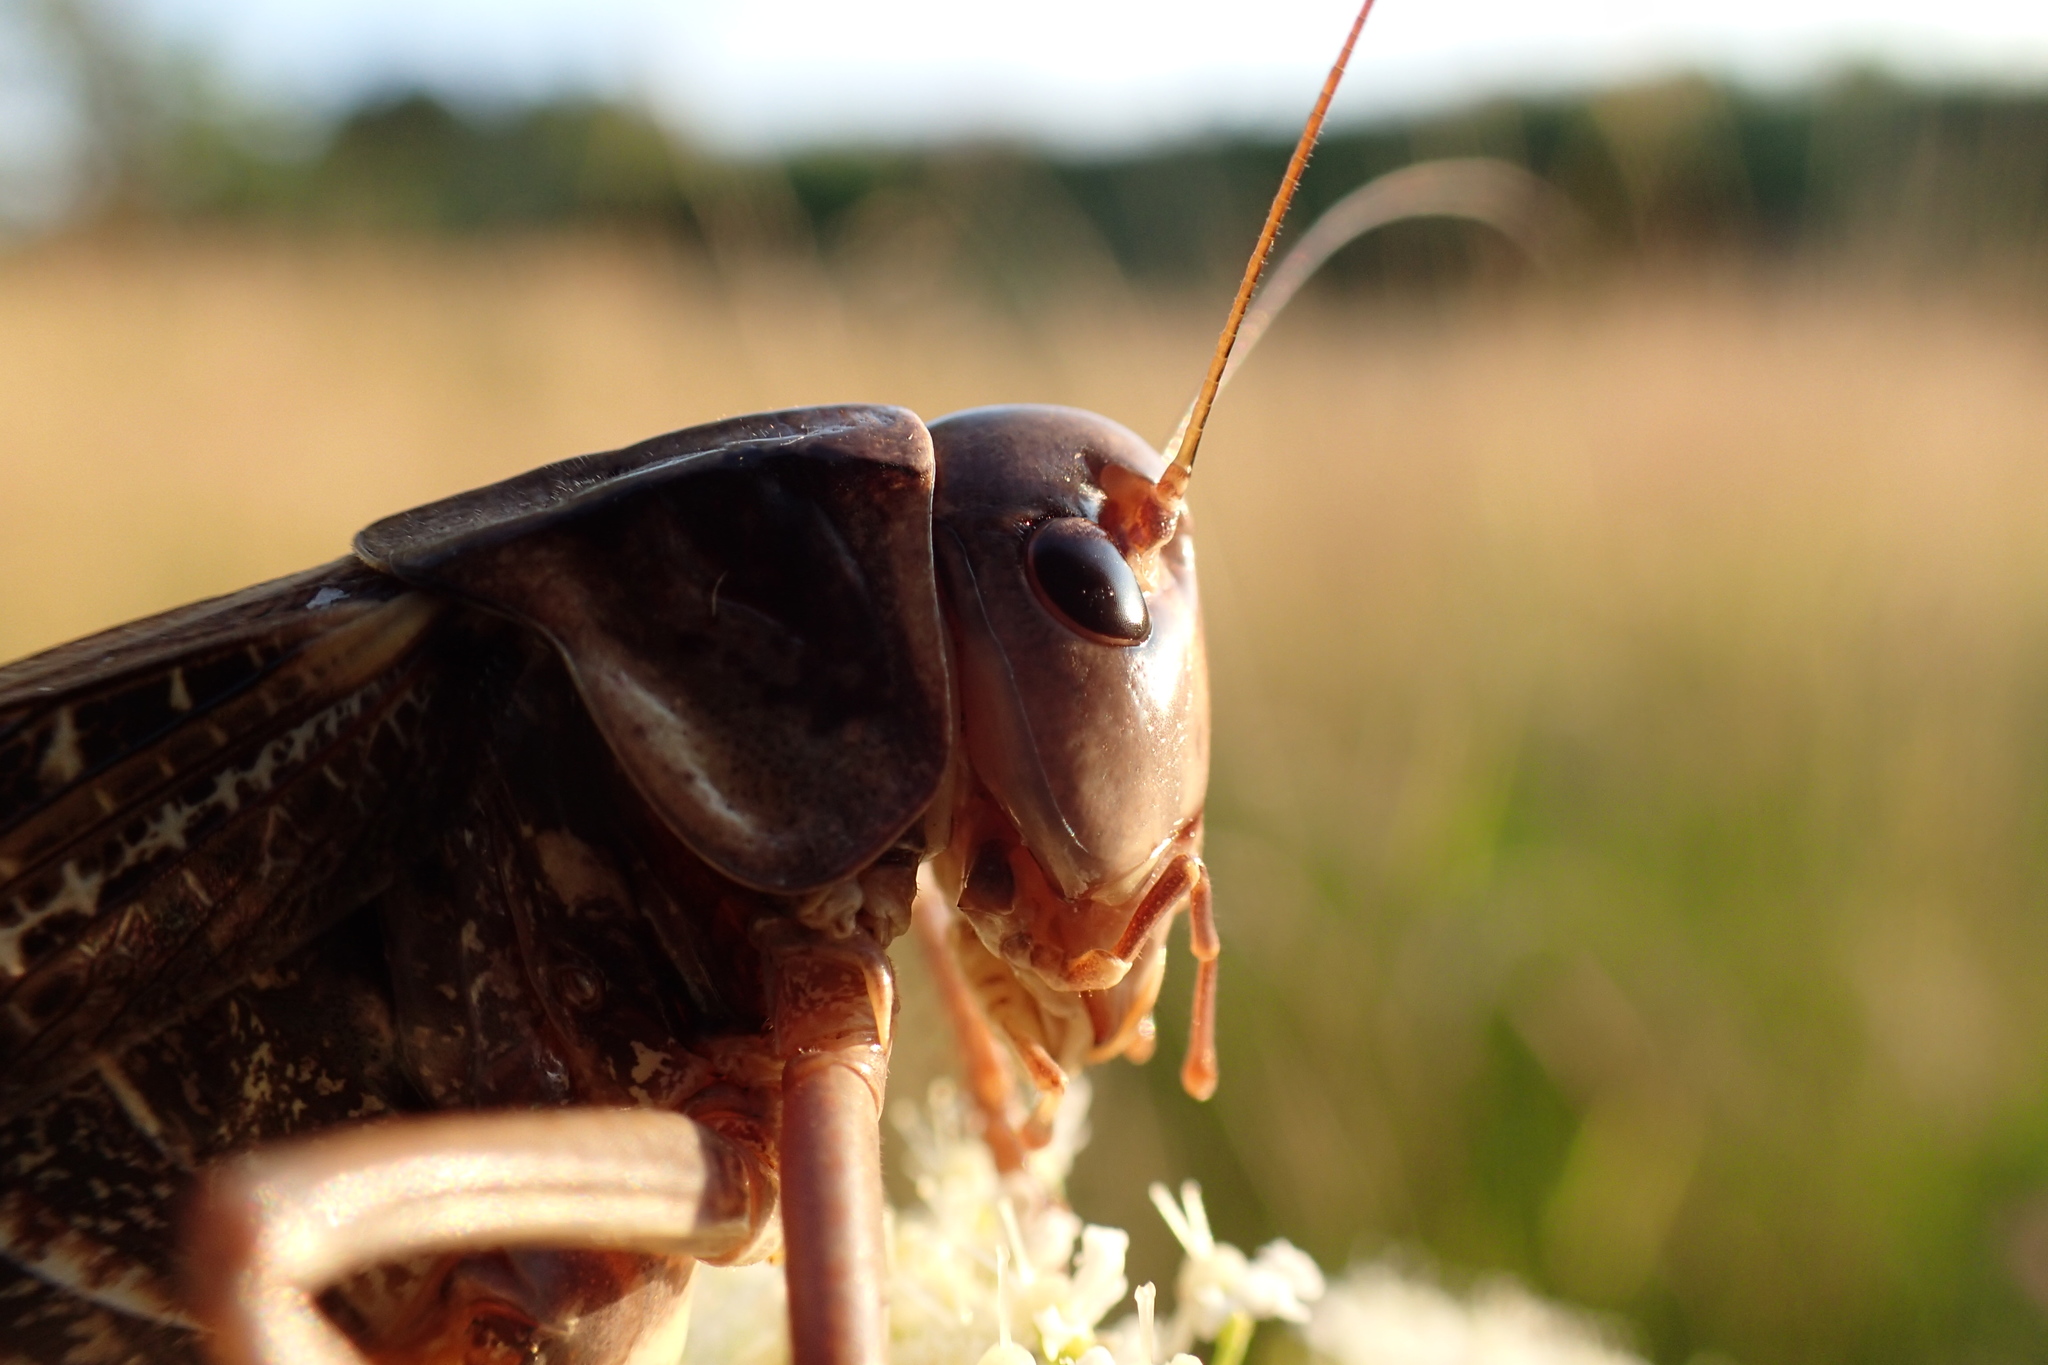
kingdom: Animalia
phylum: Arthropoda
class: Insecta
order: Orthoptera
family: Tettigoniidae
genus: Decticus
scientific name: Decticus verrucivorus
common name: Wart-biter
